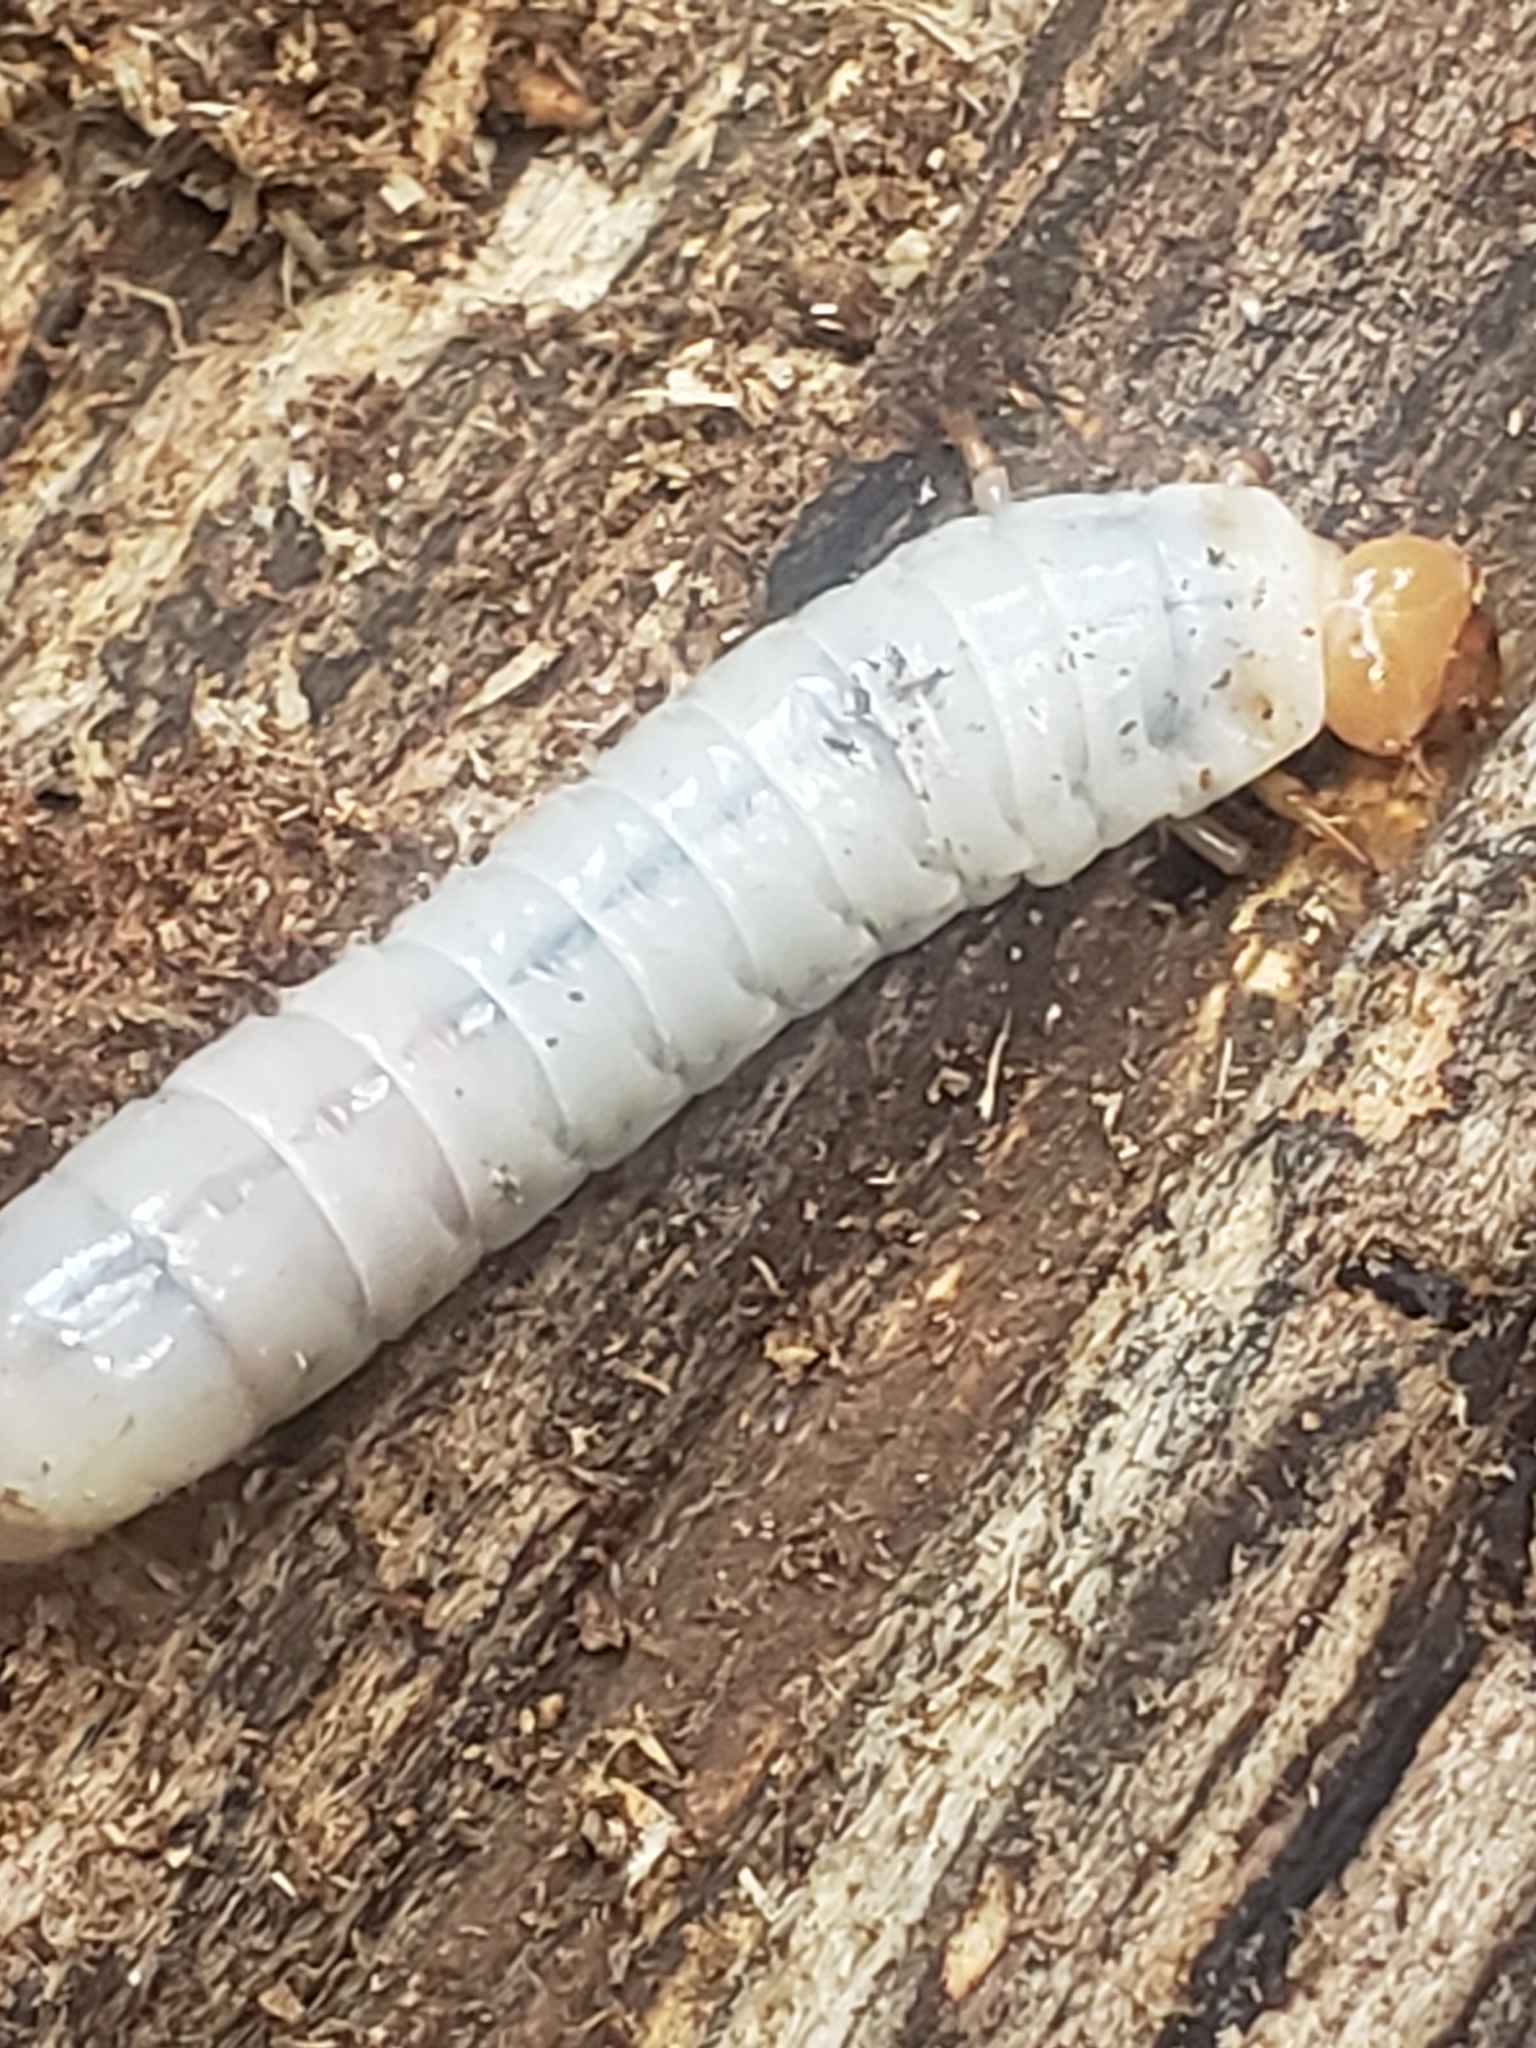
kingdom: Animalia
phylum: Arthropoda
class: Insecta
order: Coleoptera
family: Passalidae
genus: Odontotaenius
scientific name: Odontotaenius disjunctus
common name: Patent leather beetle
